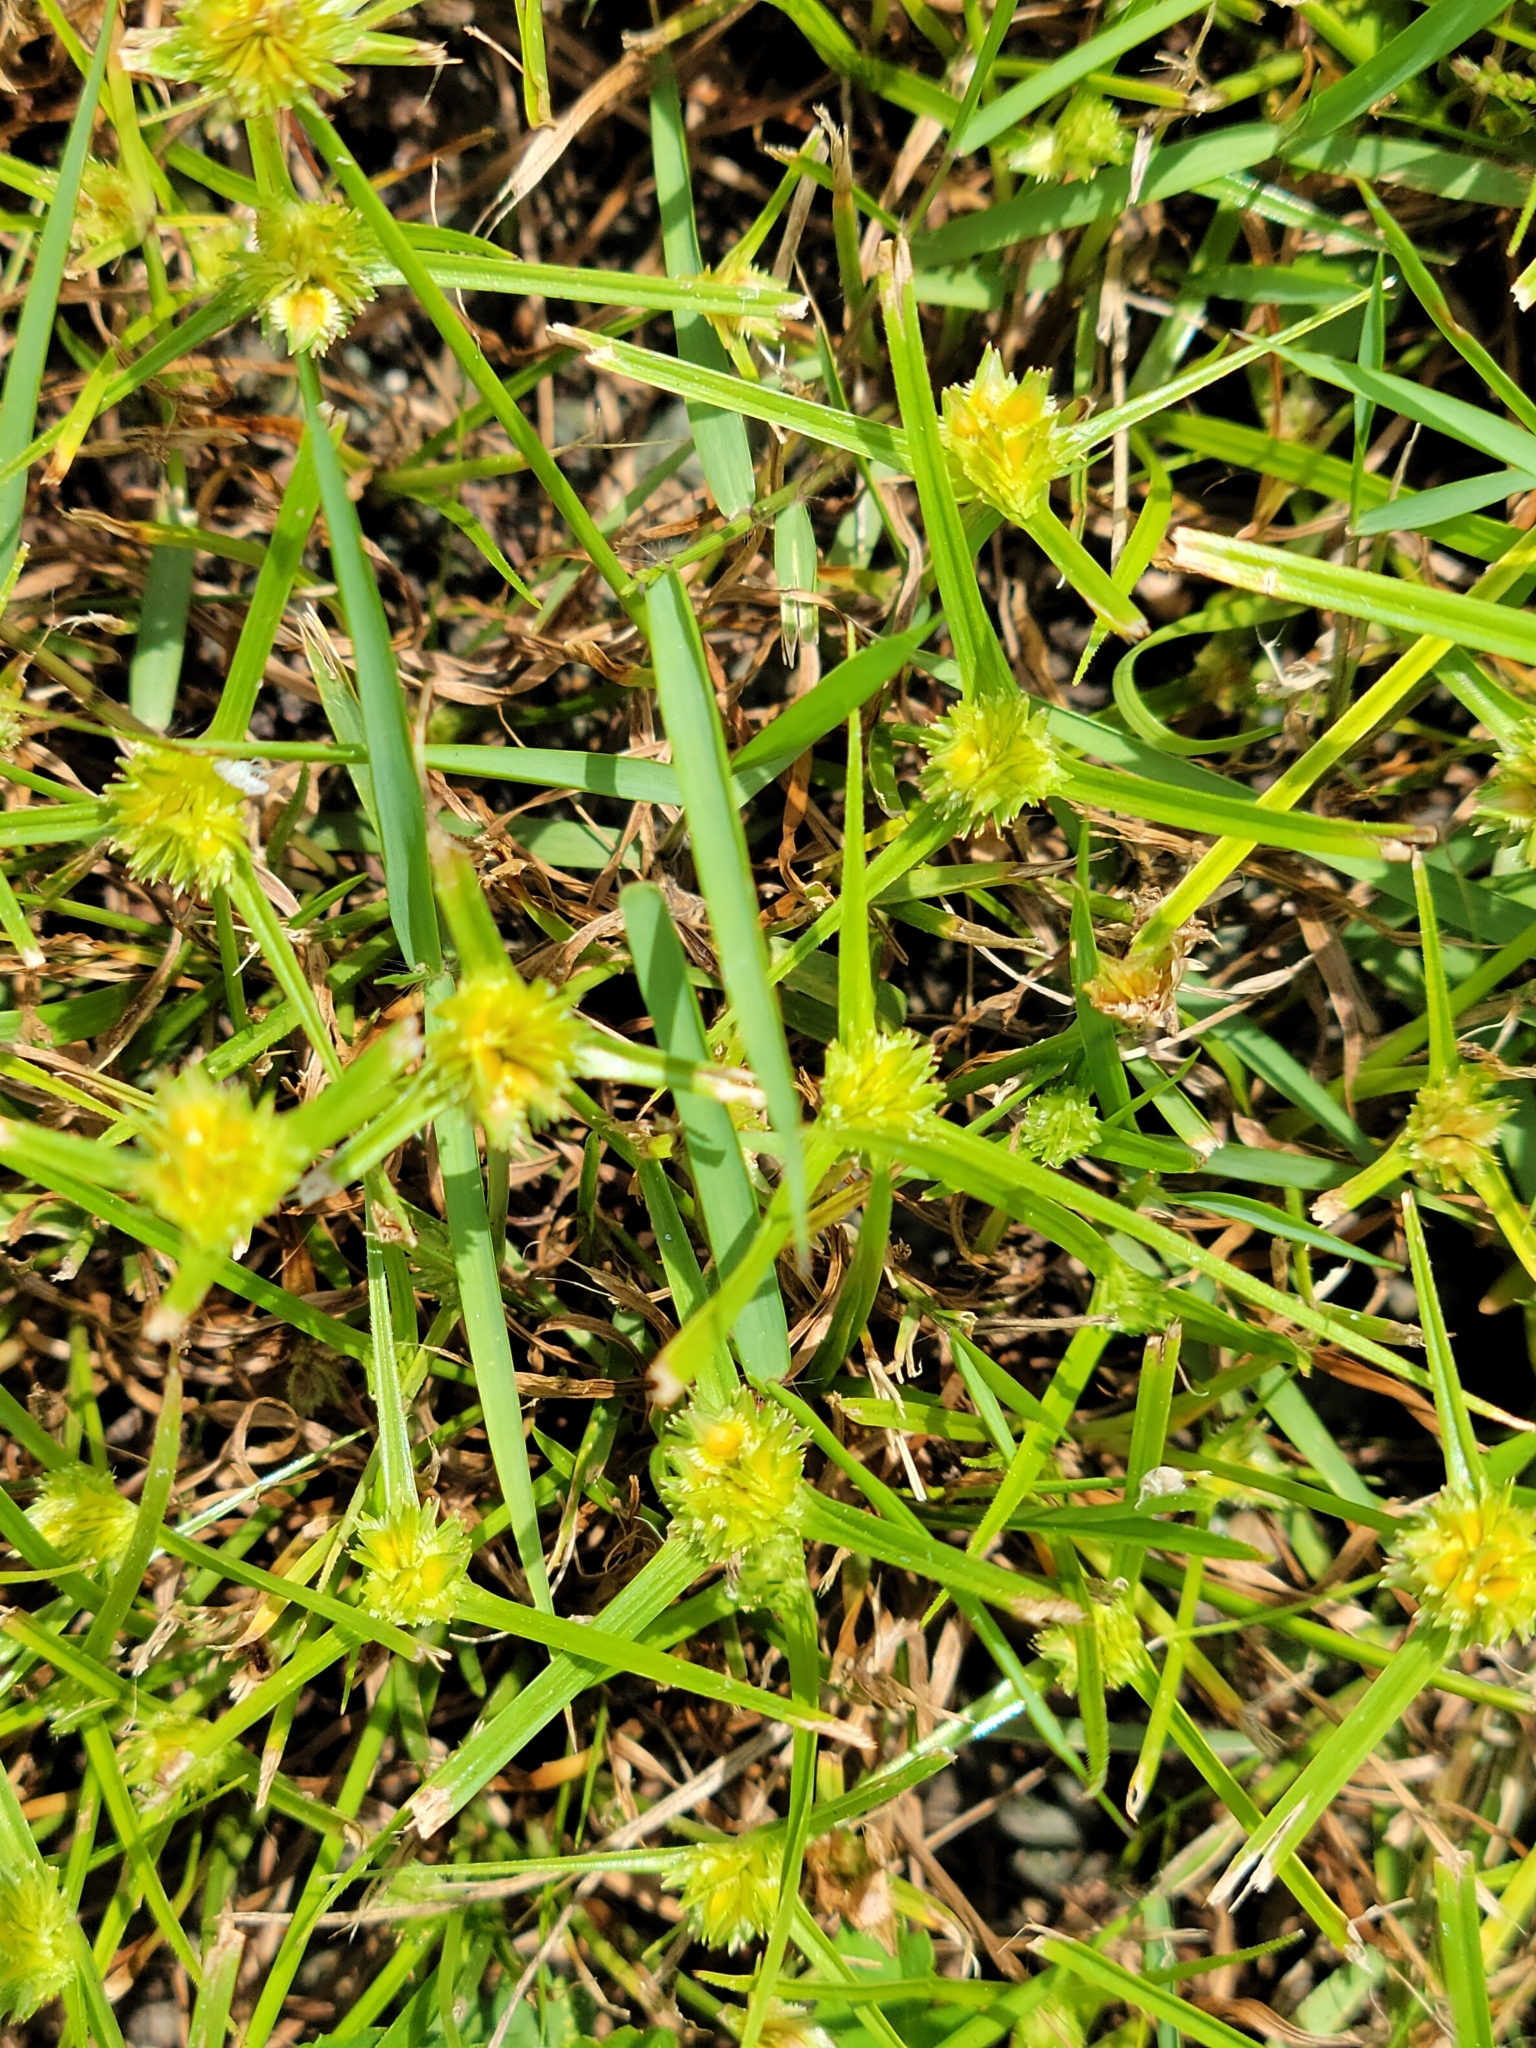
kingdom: Plantae
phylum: Tracheophyta
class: Liliopsida
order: Poales
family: Cyperaceae
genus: Cyperus
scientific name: Cyperus metzii
